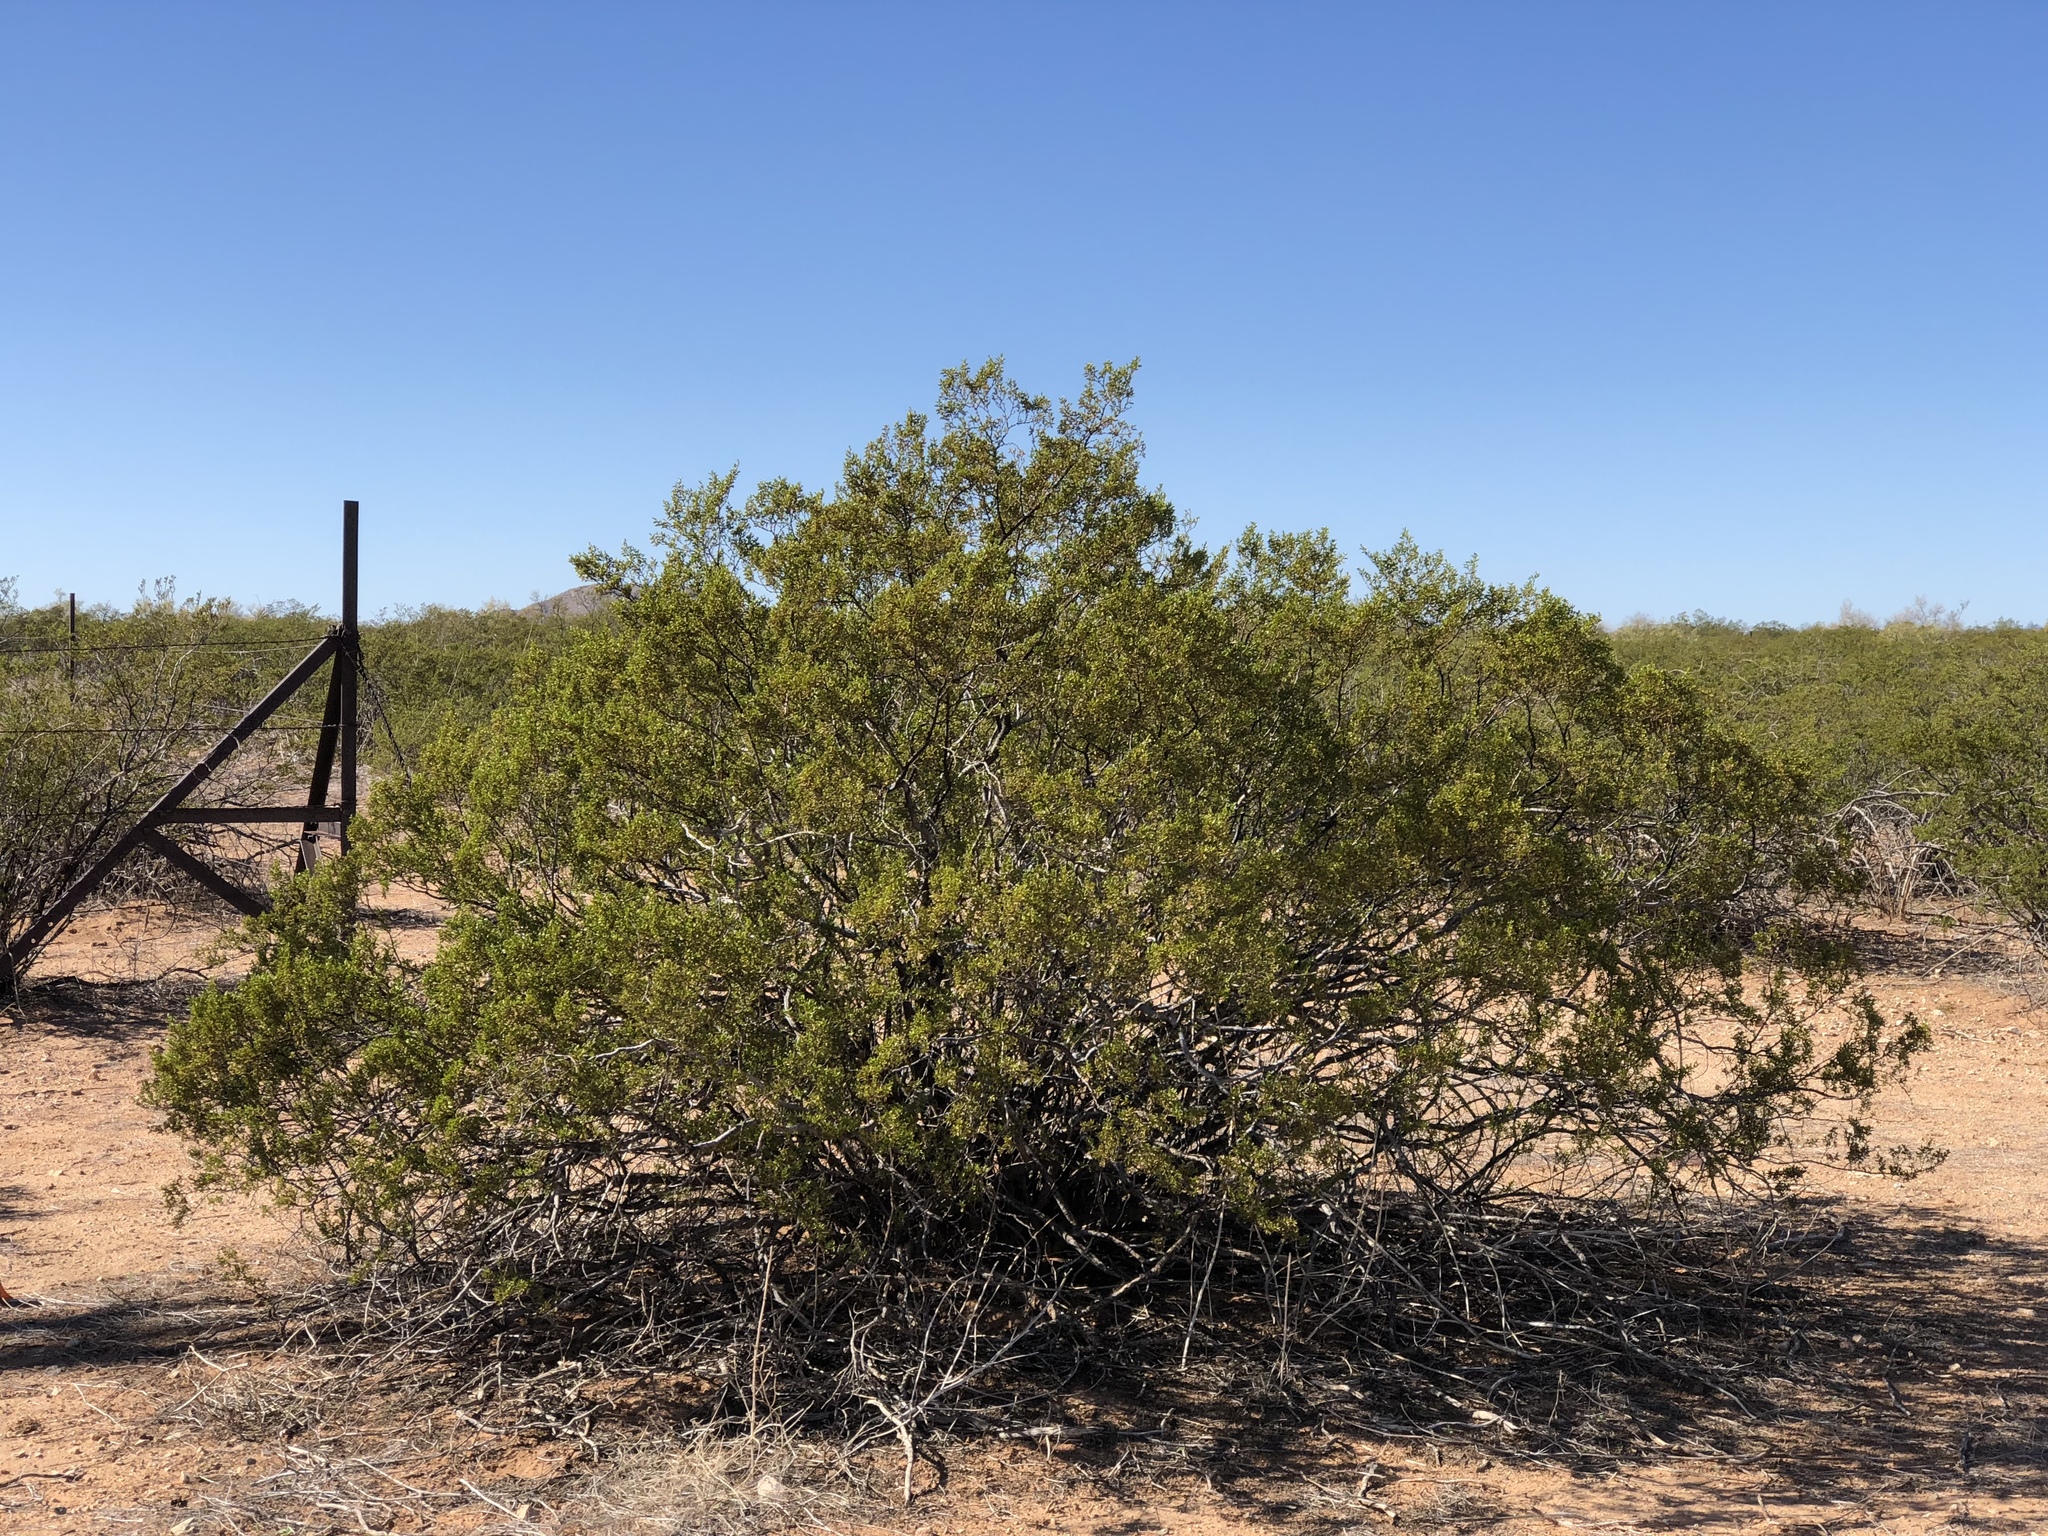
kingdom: Plantae
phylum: Tracheophyta
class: Magnoliopsida
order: Zygophyllales
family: Zygophyllaceae
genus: Larrea
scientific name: Larrea tridentata
